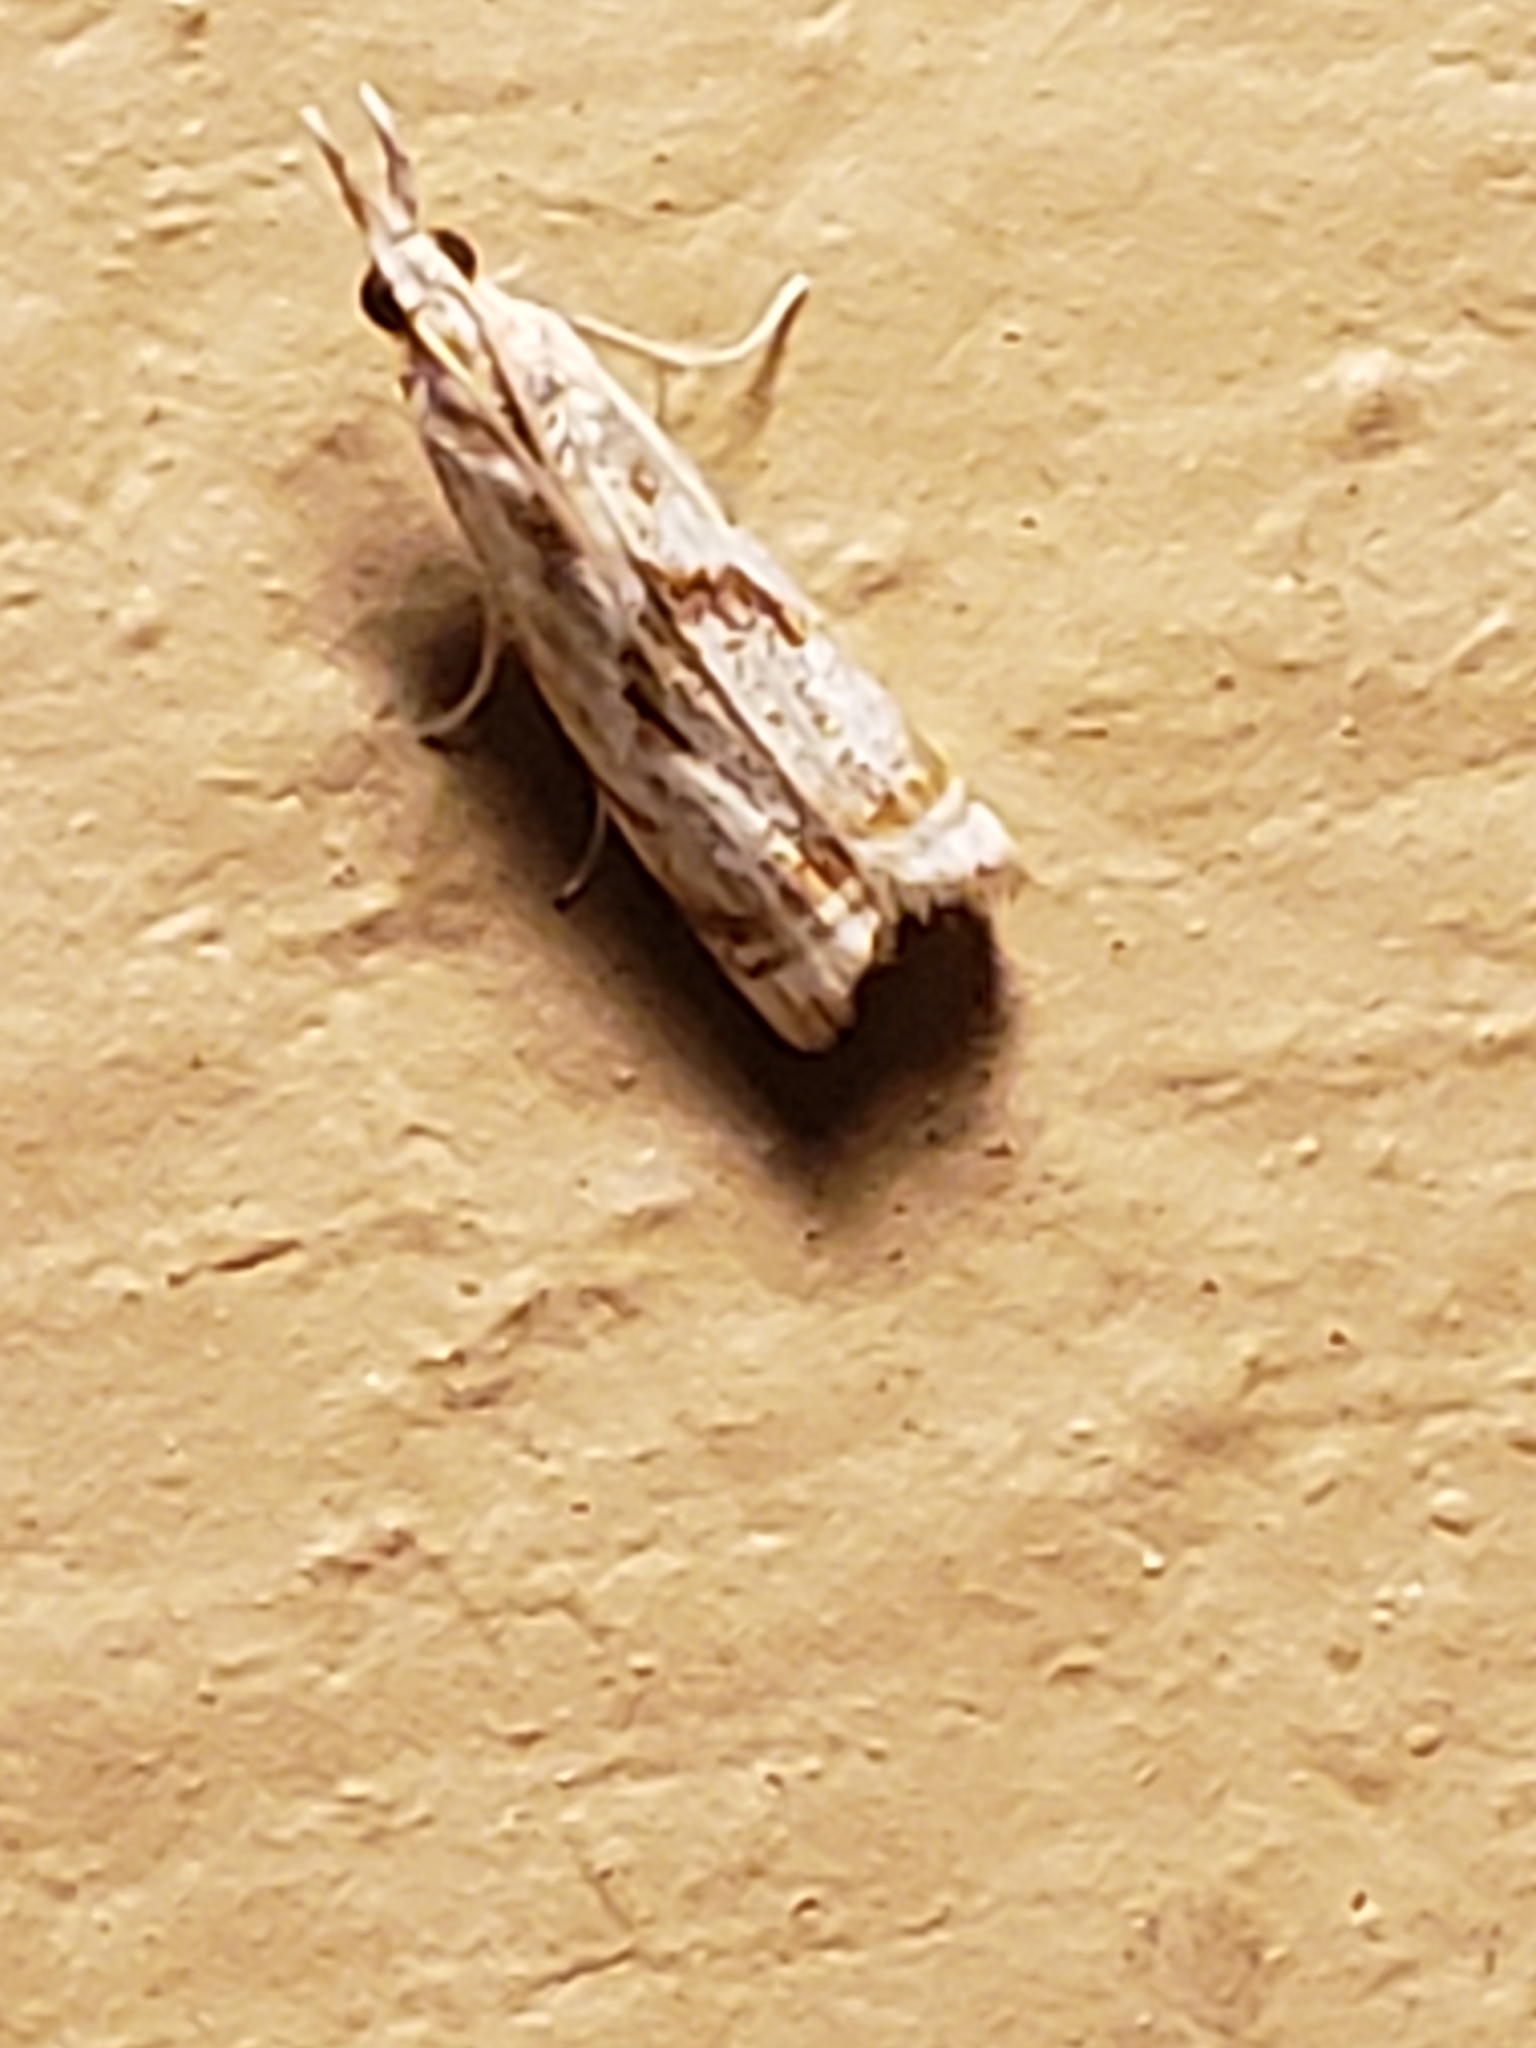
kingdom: Animalia
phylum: Arthropoda
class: Insecta
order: Lepidoptera
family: Crambidae
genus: Microcrambus
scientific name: Microcrambus elegans
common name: Elegant grass-veneer
